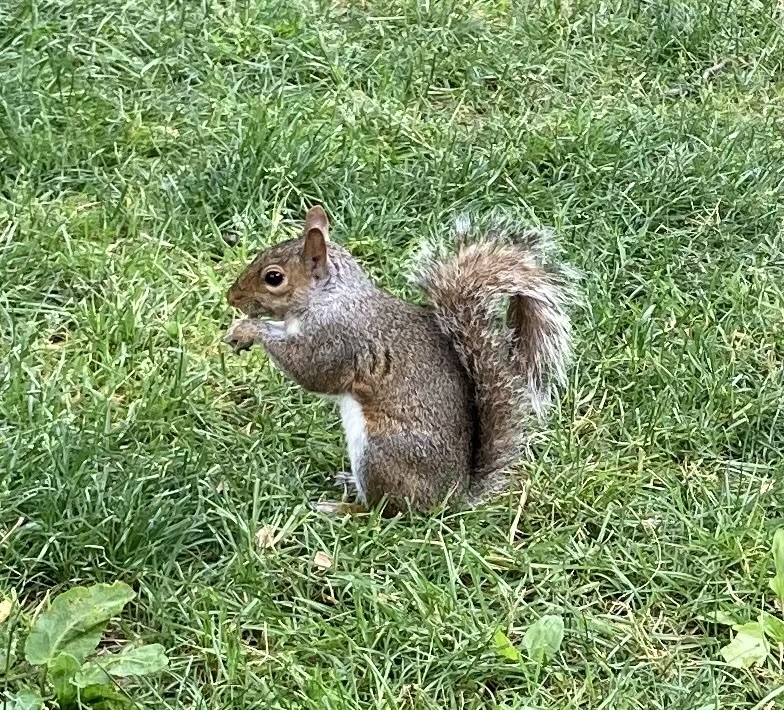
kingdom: Animalia
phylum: Chordata
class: Mammalia
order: Rodentia
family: Sciuridae
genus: Sciurus
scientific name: Sciurus carolinensis
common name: Eastern gray squirrel
